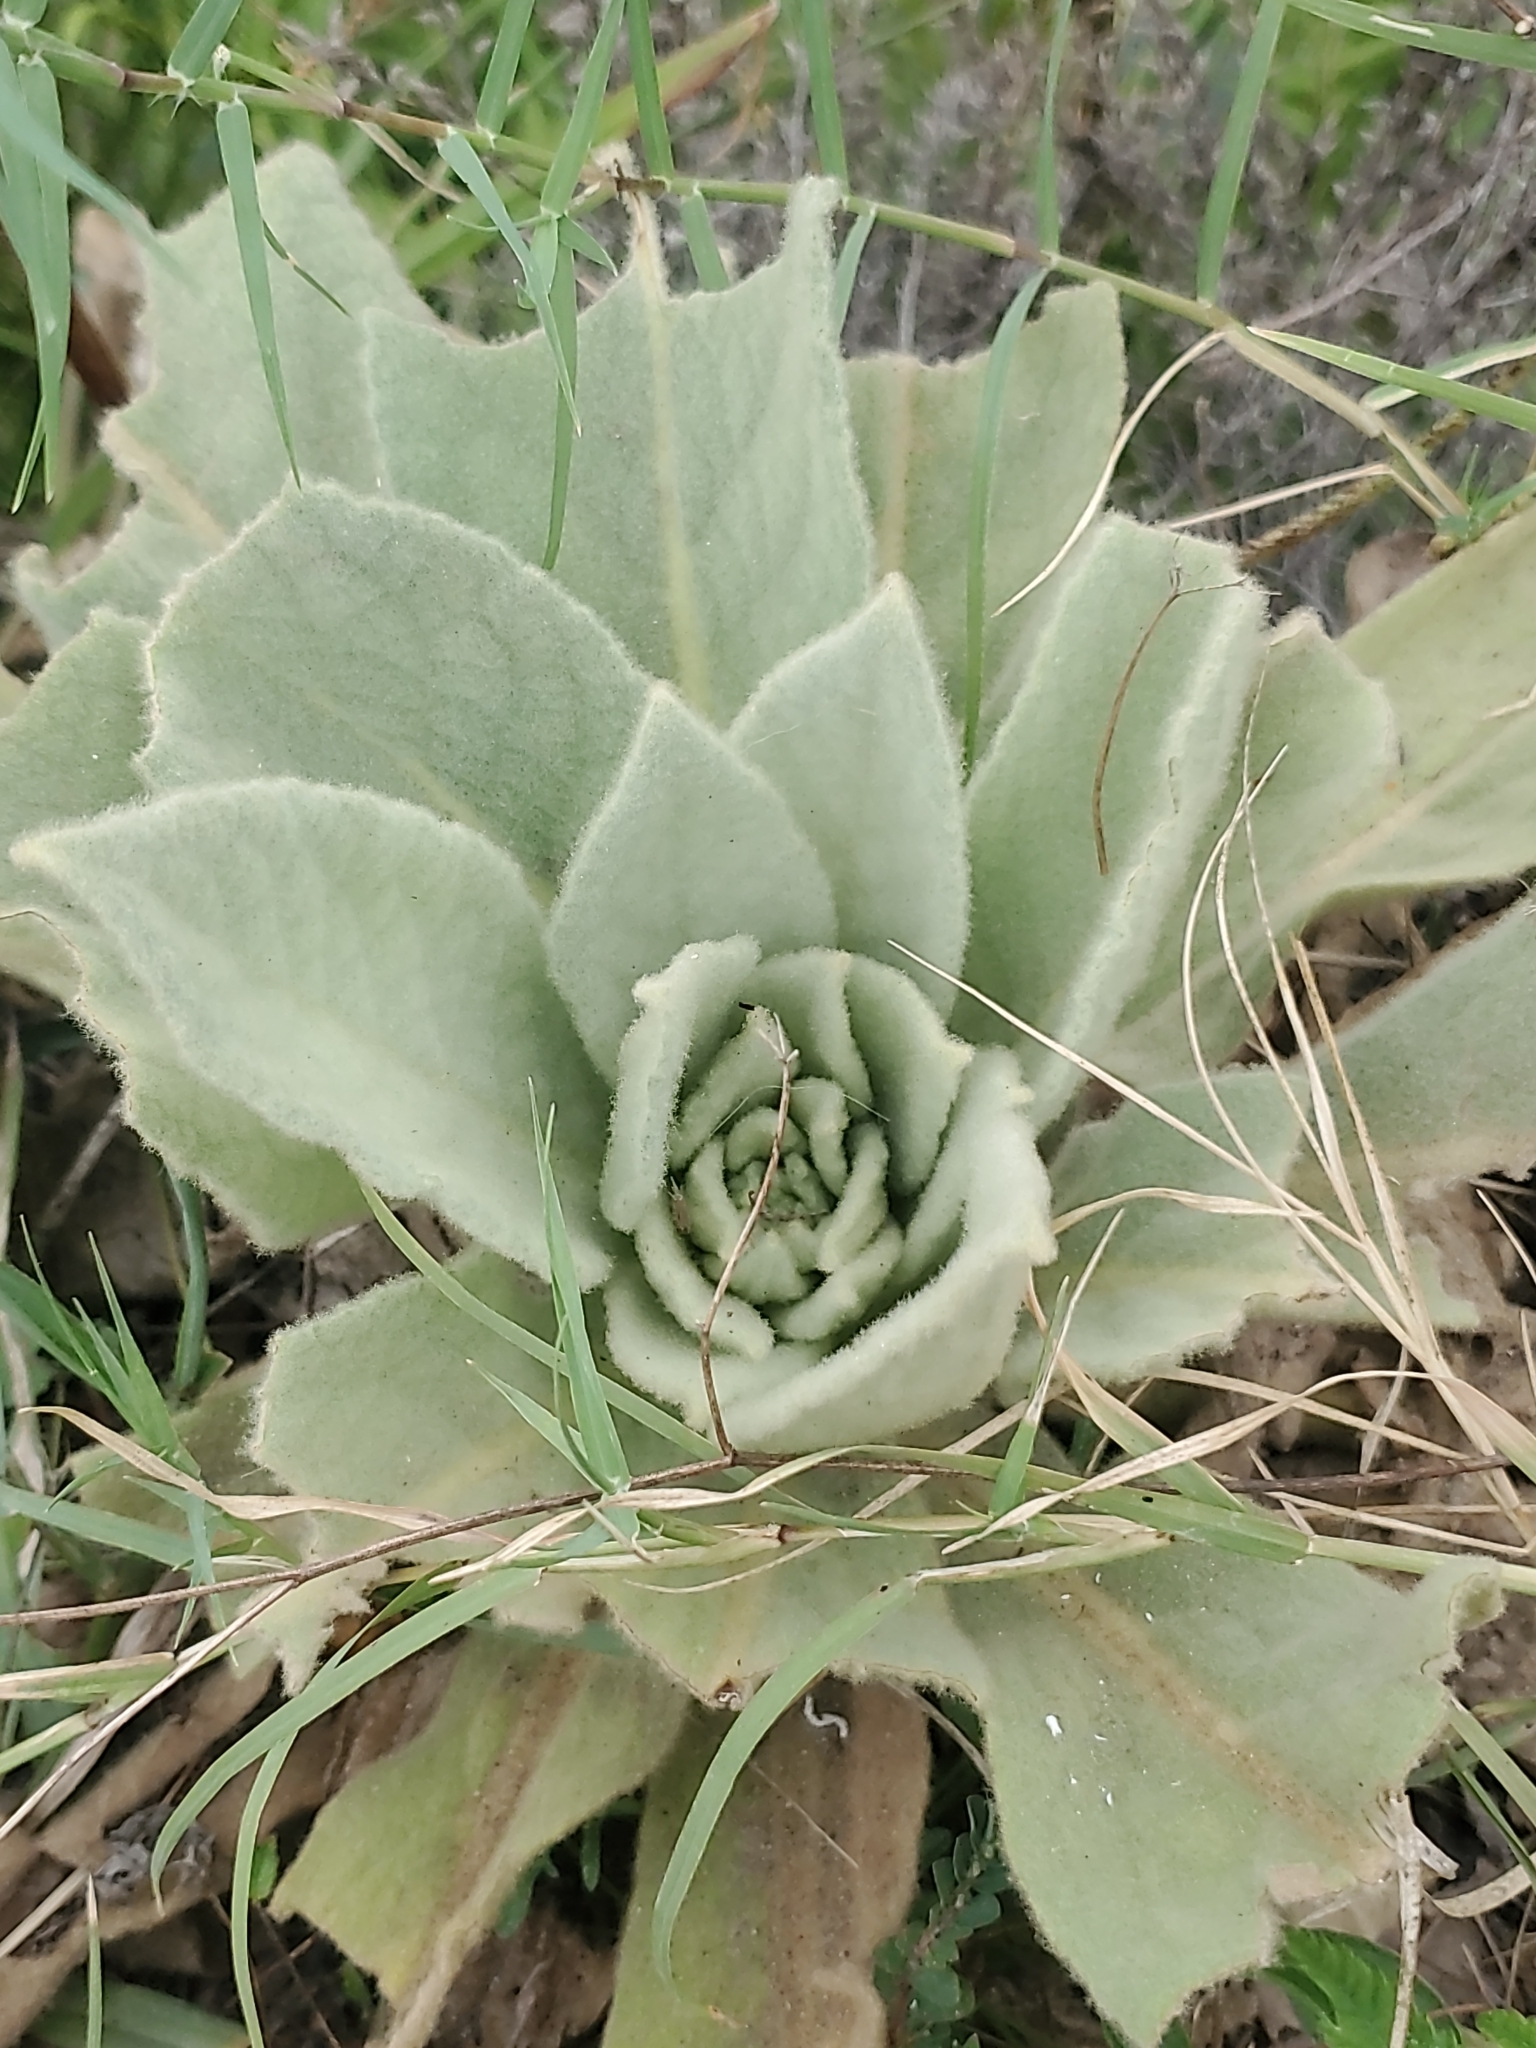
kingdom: Plantae
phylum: Tracheophyta
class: Magnoliopsida
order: Lamiales
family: Scrophulariaceae
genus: Verbascum
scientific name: Verbascum thapsus
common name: Common mullein
